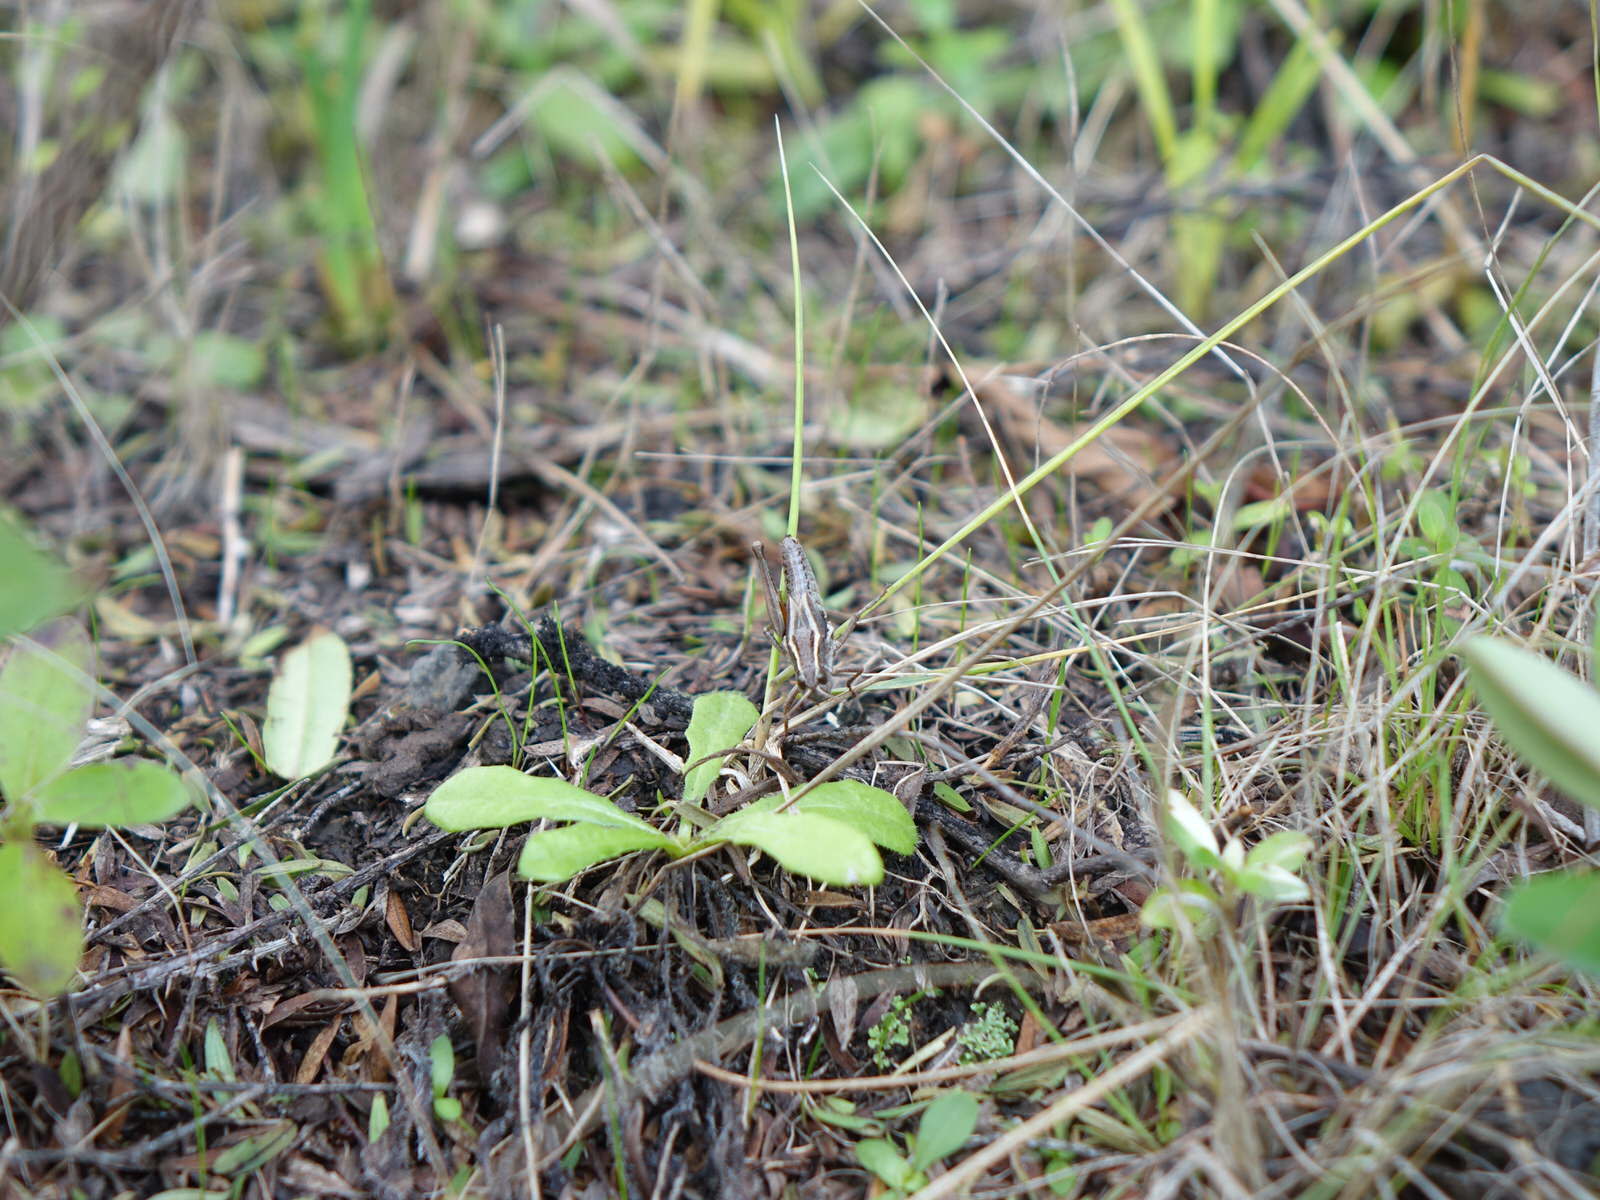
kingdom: Animalia
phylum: Arthropoda
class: Insecta
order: Orthoptera
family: Acrididae
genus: Phaulacridium
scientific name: Phaulacridium marginale
